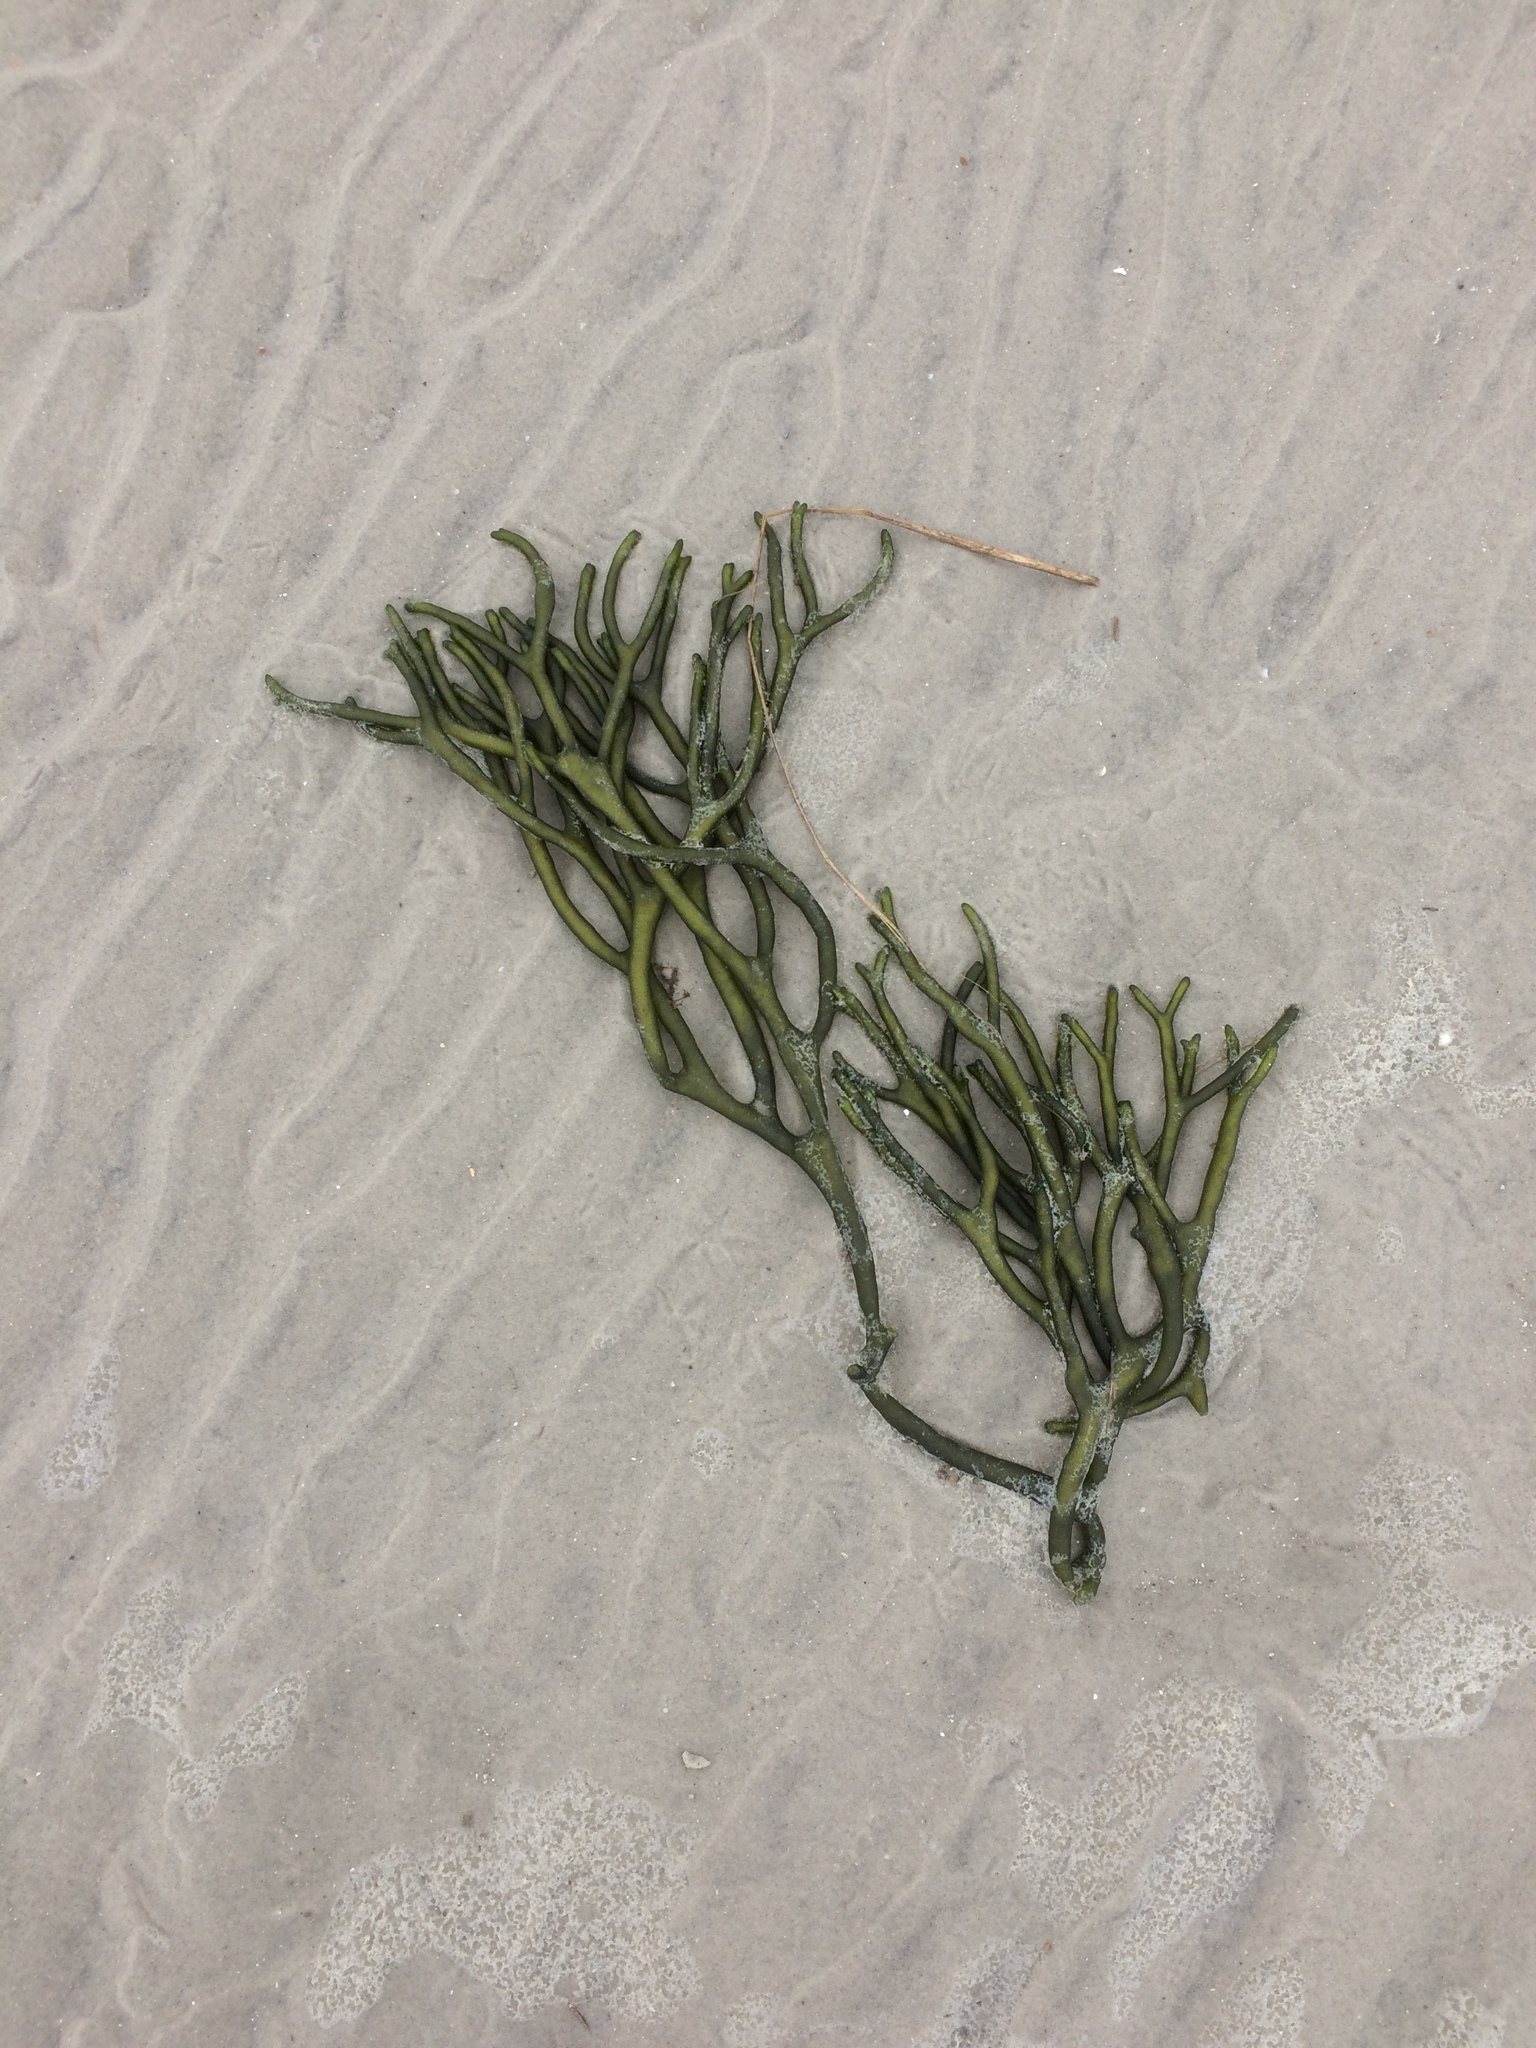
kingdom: Plantae
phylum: Chlorophyta
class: Ulvophyceae
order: Bryopsidales
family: Codiaceae
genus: Codium
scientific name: Codium fragile
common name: Dead man's fingers
